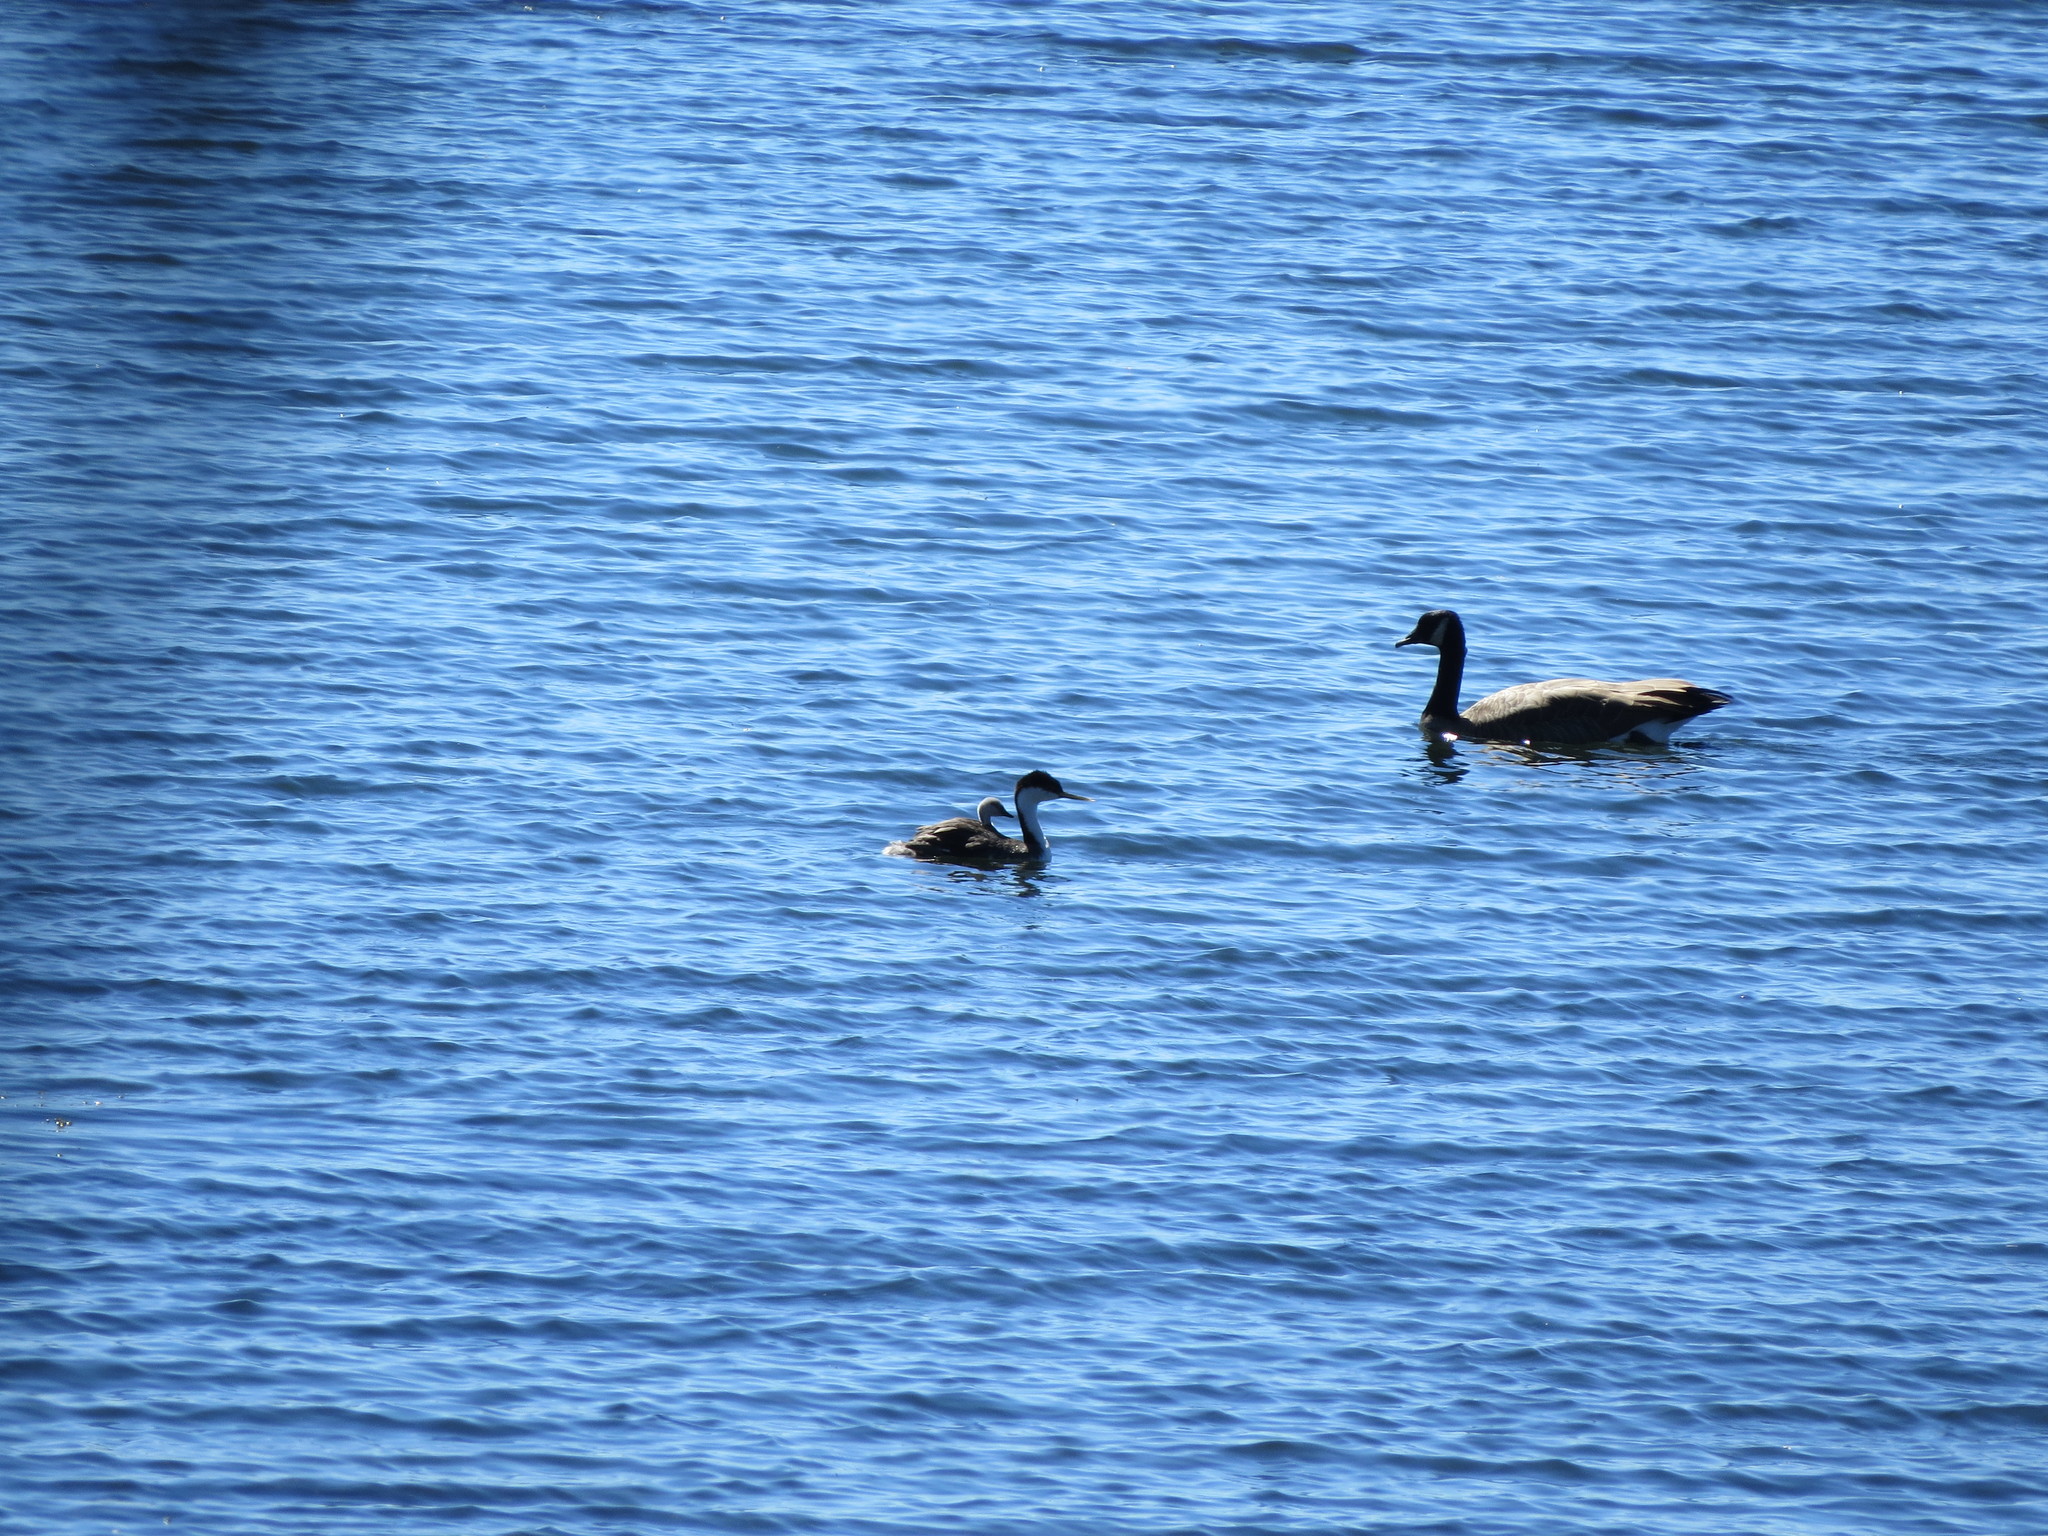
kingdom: Animalia
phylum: Chordata
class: Aves
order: Podicipediformes
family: Podicipedidae
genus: Aechmophorus
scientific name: Aechmophorus occidentalis
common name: Western grebe
